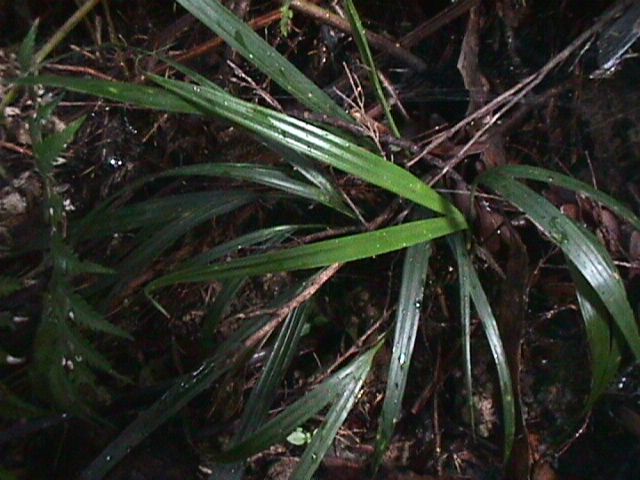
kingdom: Plantae
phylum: Tracheophyta
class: Liliopsida
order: Arecales
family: Arecaceae
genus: Rhopalostylis
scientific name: Rhopalostylis sapida
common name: Feather-duster palm
